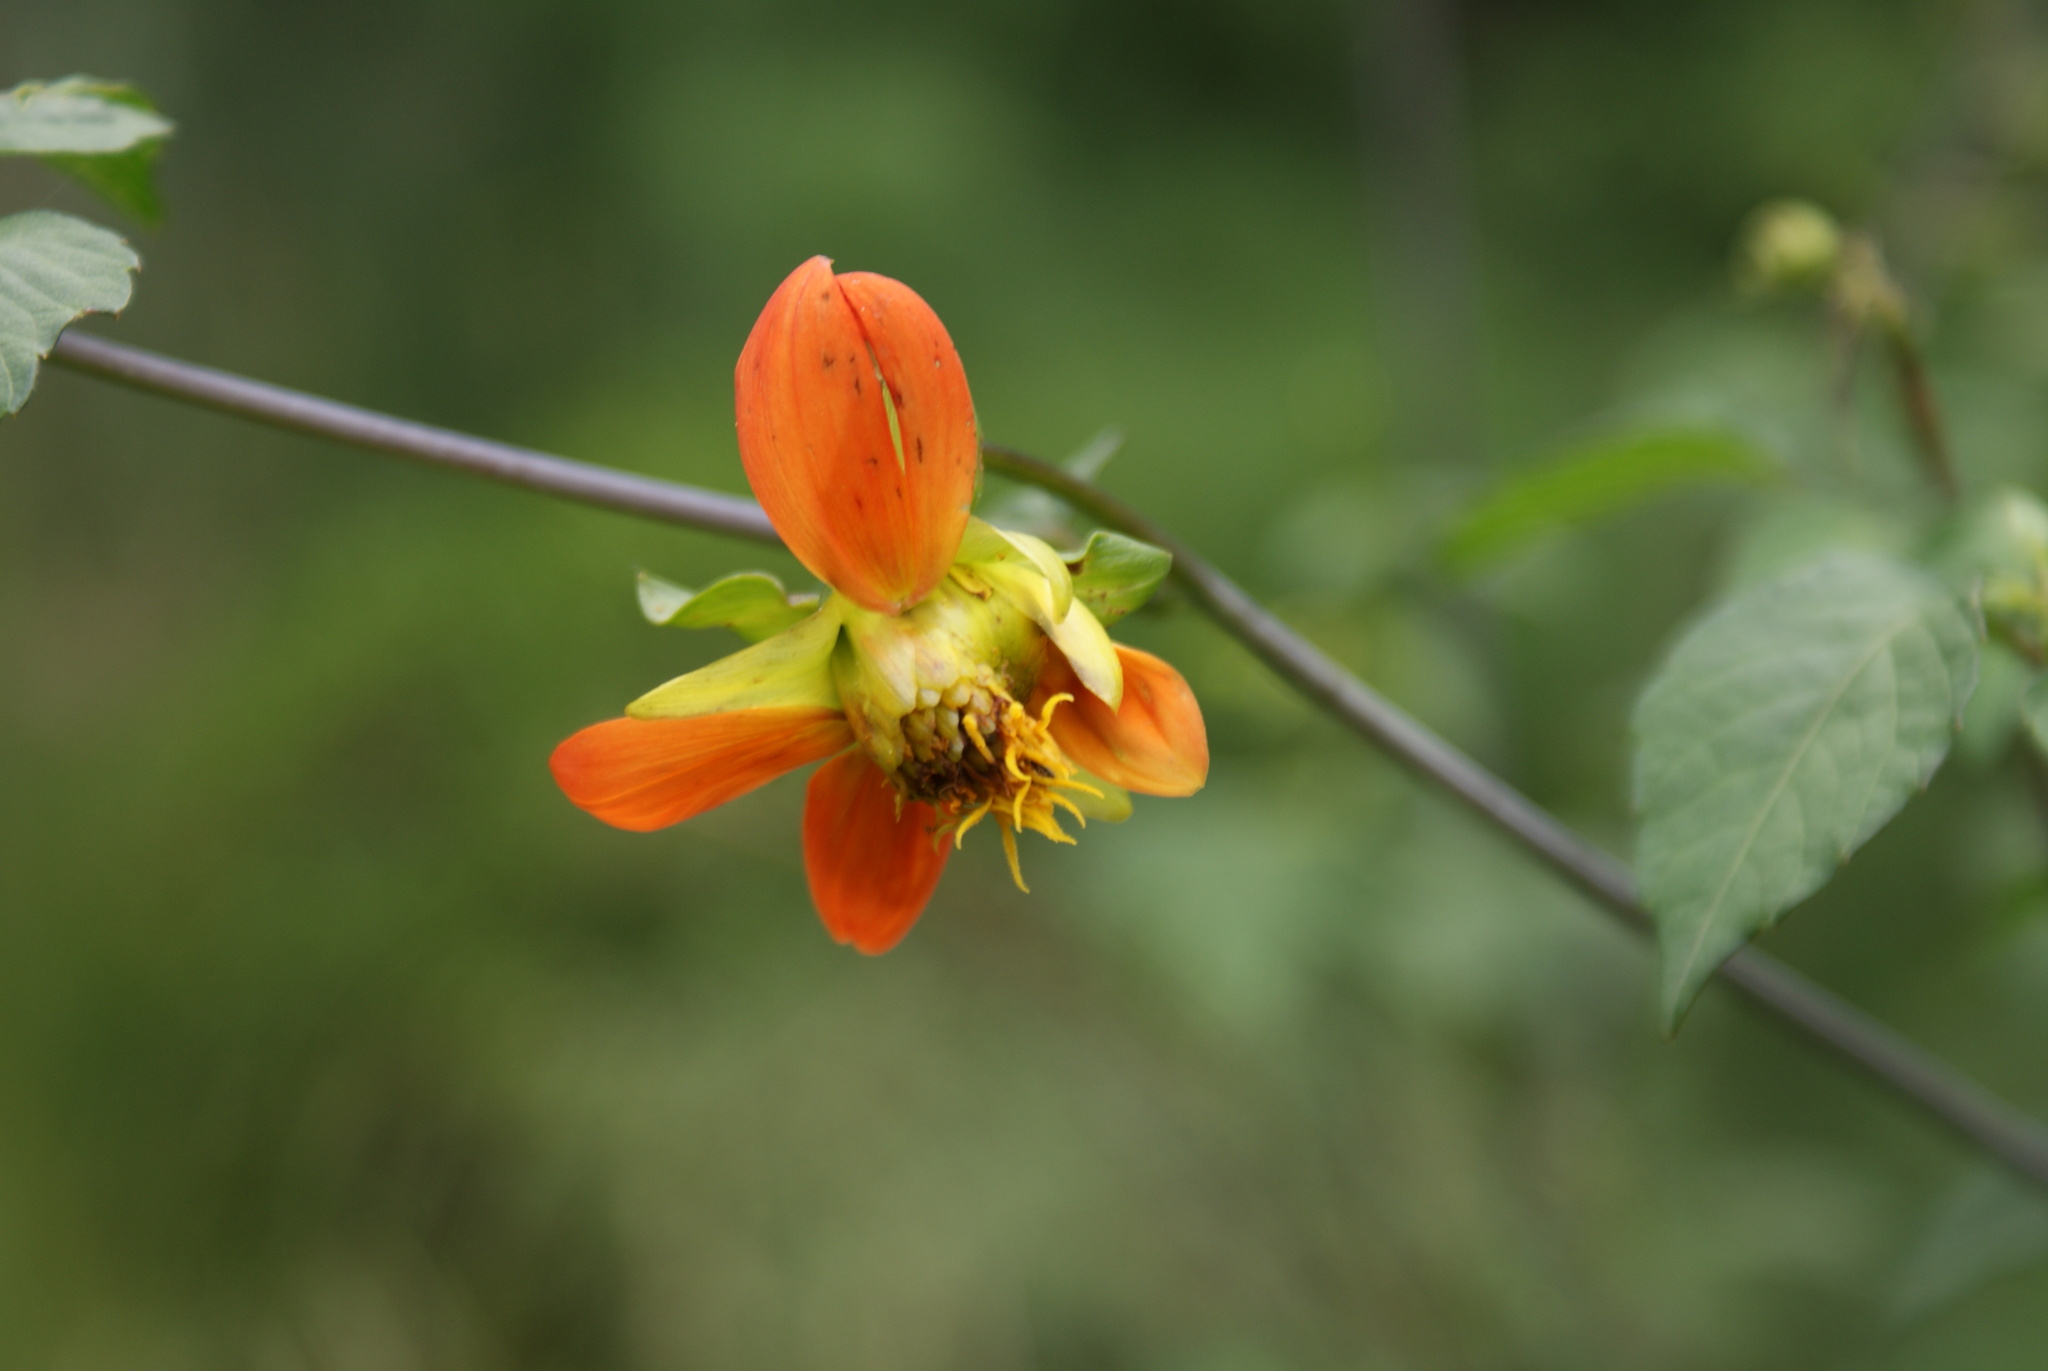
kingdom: Plantae
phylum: Tracheophyta
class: Magnoliopsida
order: Asterales
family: Asteraceae
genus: Dahlia
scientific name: Dahlia coccinea
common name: Red dahlia
